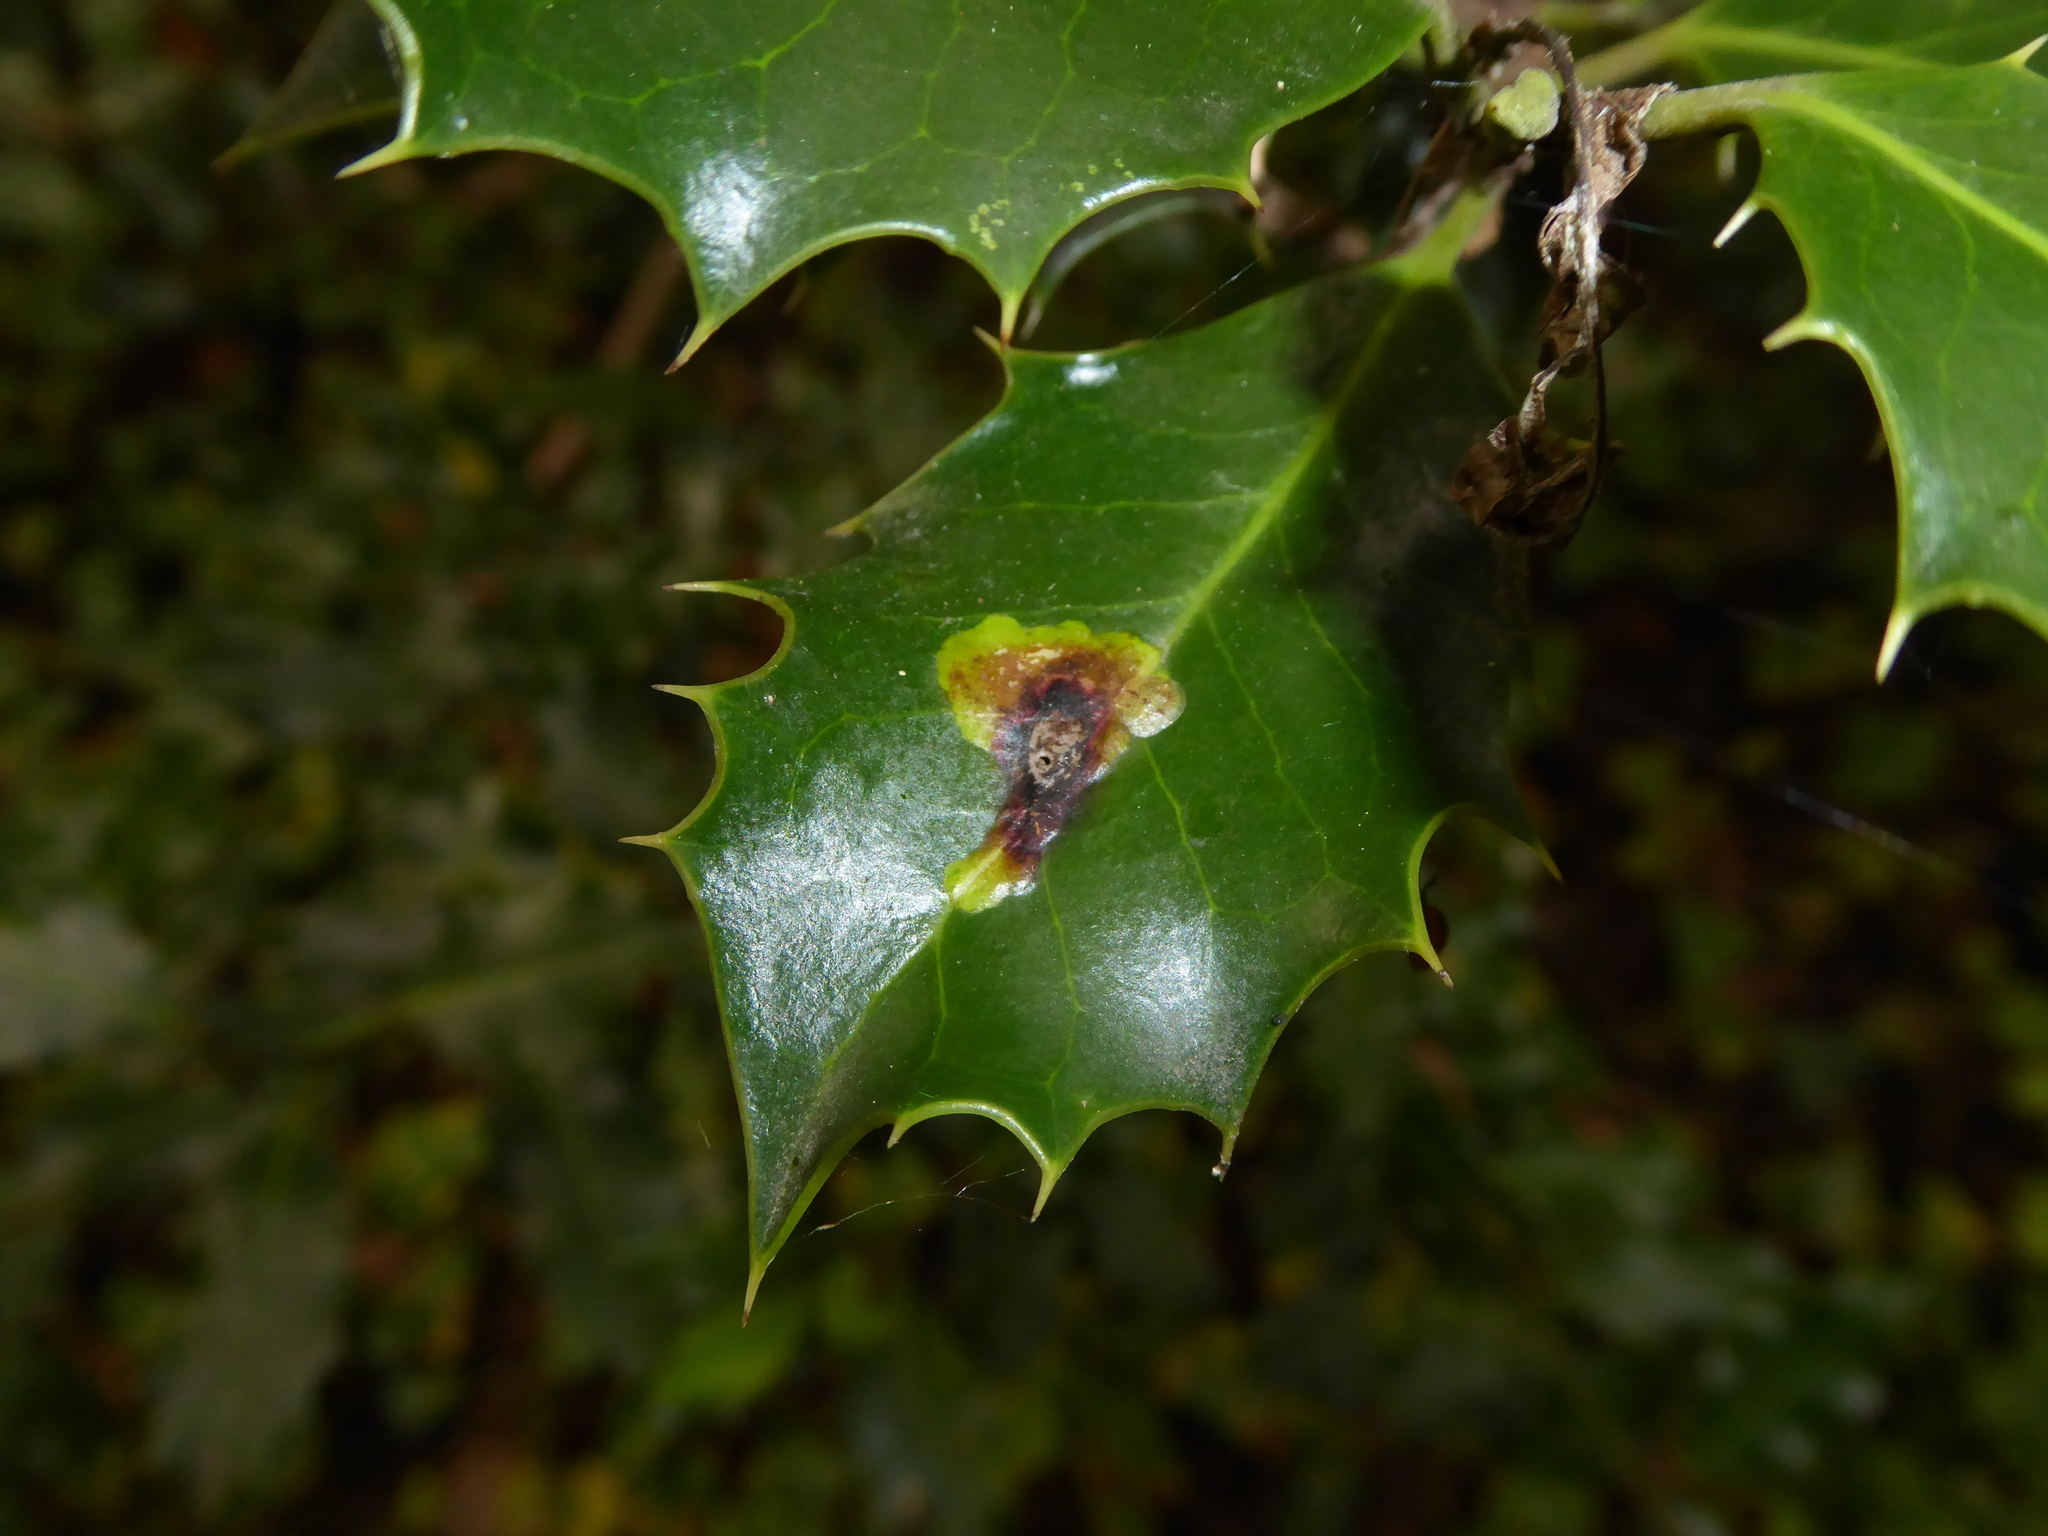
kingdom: Animalia
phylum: Arthropoda
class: Insecta
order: Diptera
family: Agromyzidae
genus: Phytomyza
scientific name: Phytomyza ilicis
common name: Holly leafminer
